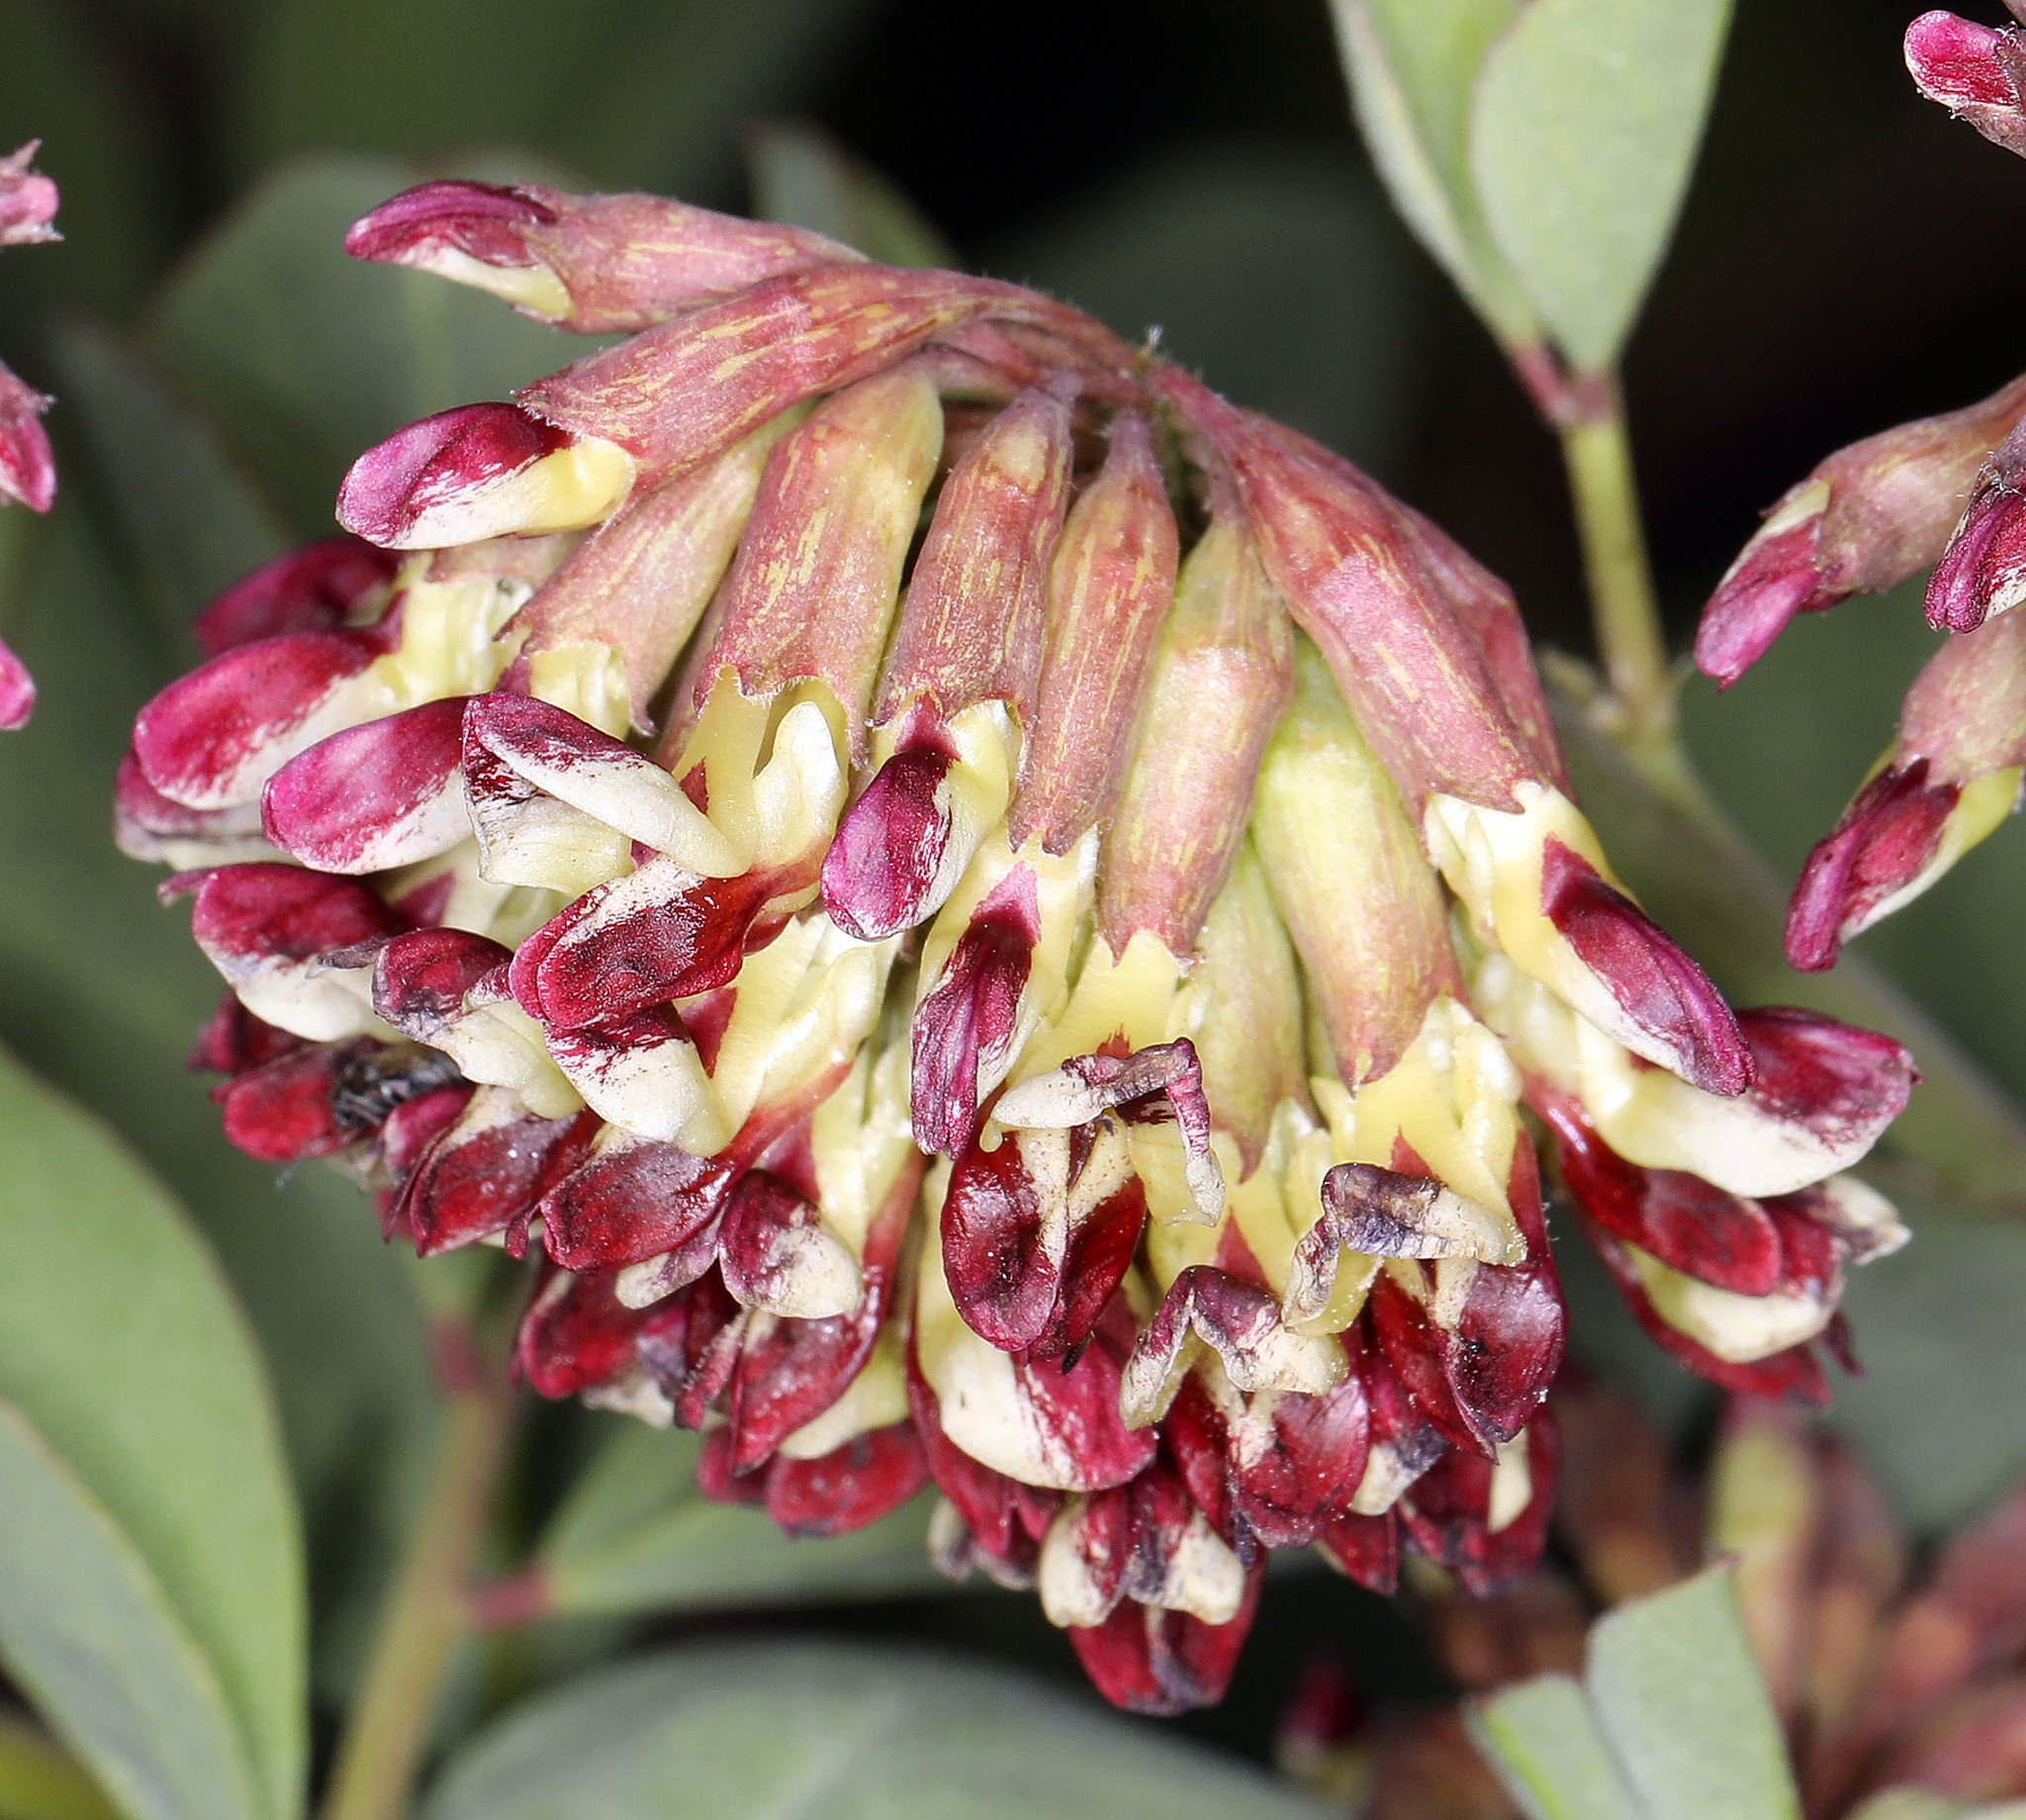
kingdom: Plantae
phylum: Tracheophyta
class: Magnoliopsida
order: Fabales
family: Fabaceae
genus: Hosackia
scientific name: Hosackia crassifolia
